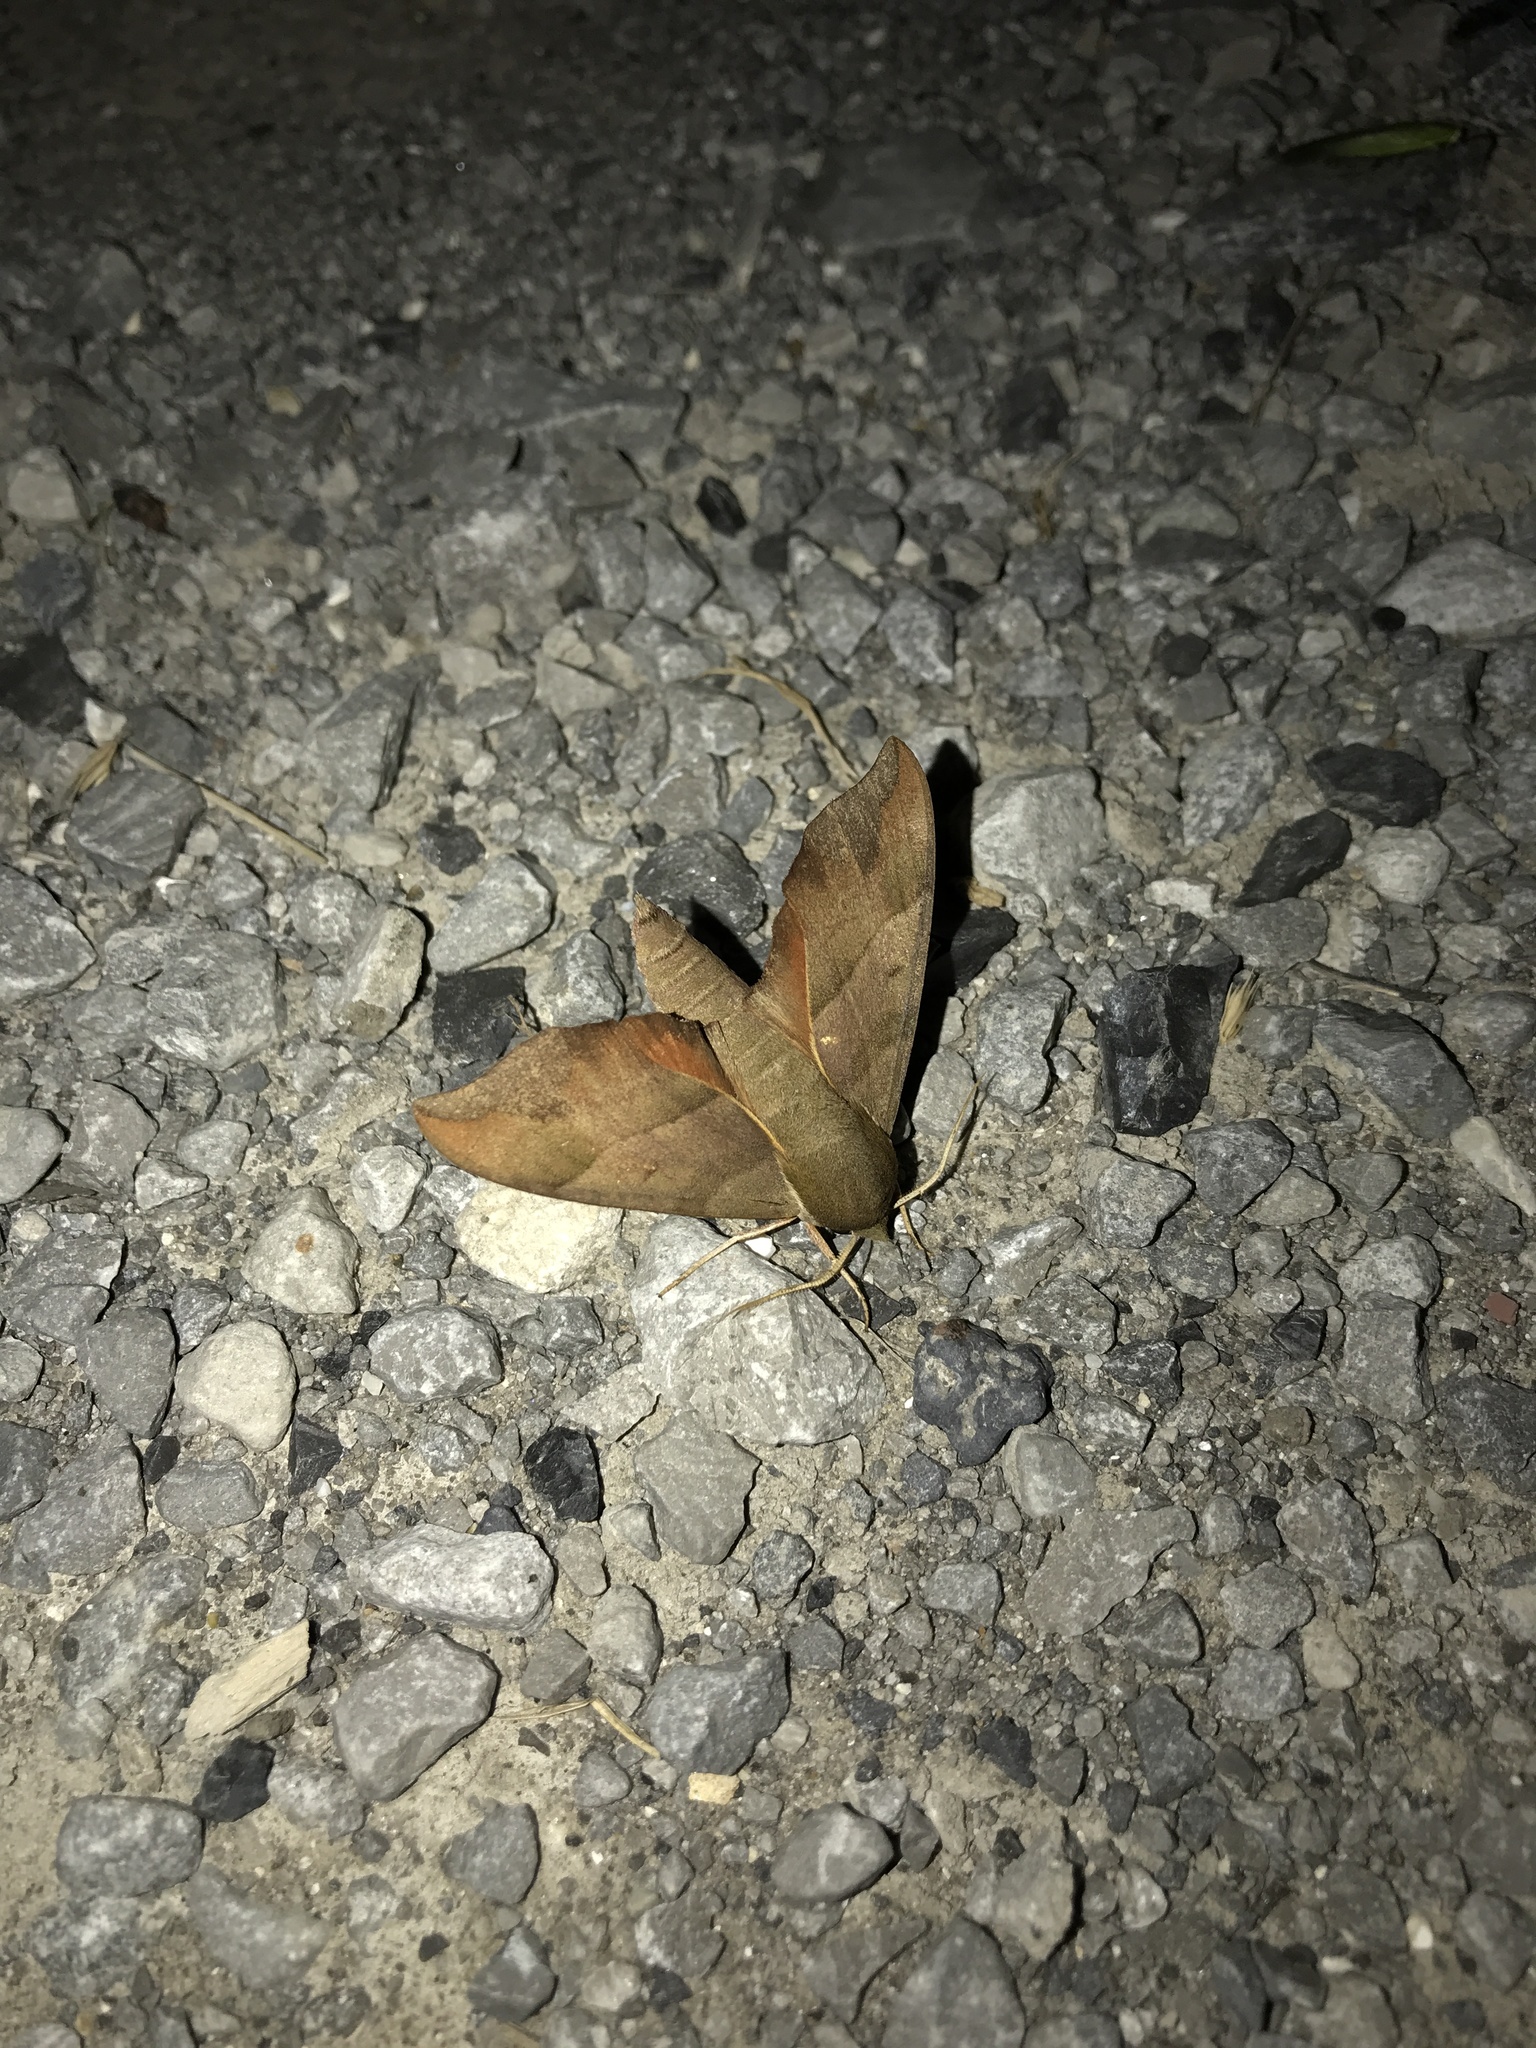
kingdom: Animalia
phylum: Arthropoda
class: Insecta
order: Lepidoptera
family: Sphingidae
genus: Darapsa
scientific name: Darapsa myron
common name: Hog sphinx
